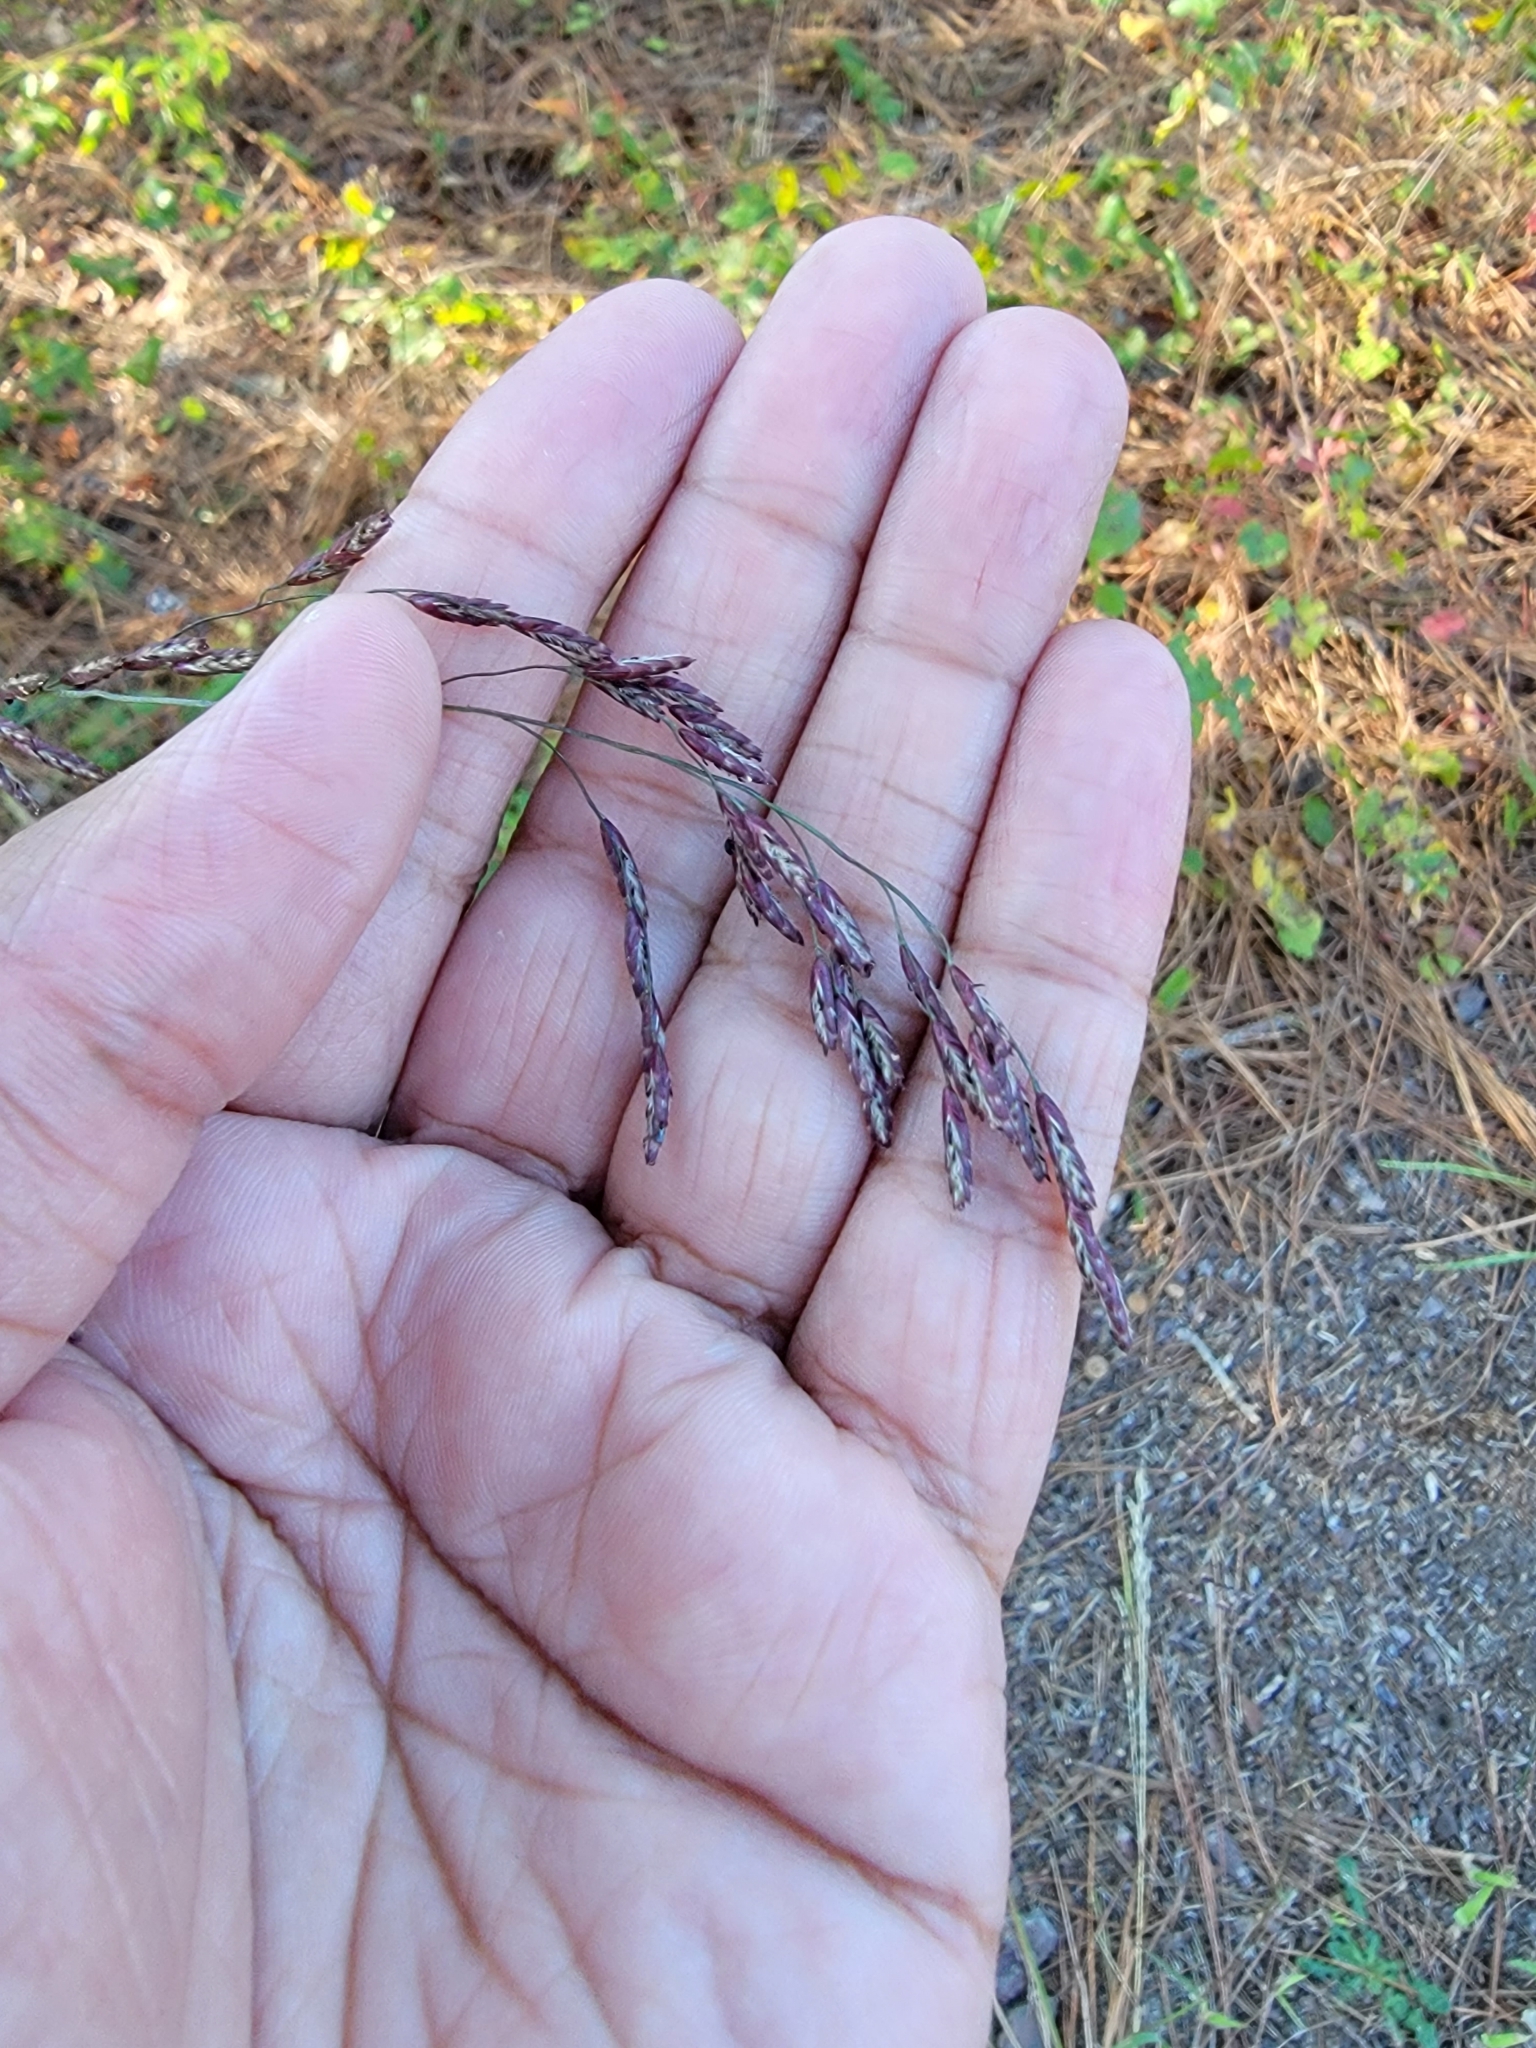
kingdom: Plantae
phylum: Tracheophyta
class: Liliopsida
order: Poales
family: Poaceae
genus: Tridens
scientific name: Tridens flavus
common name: Purpletop
